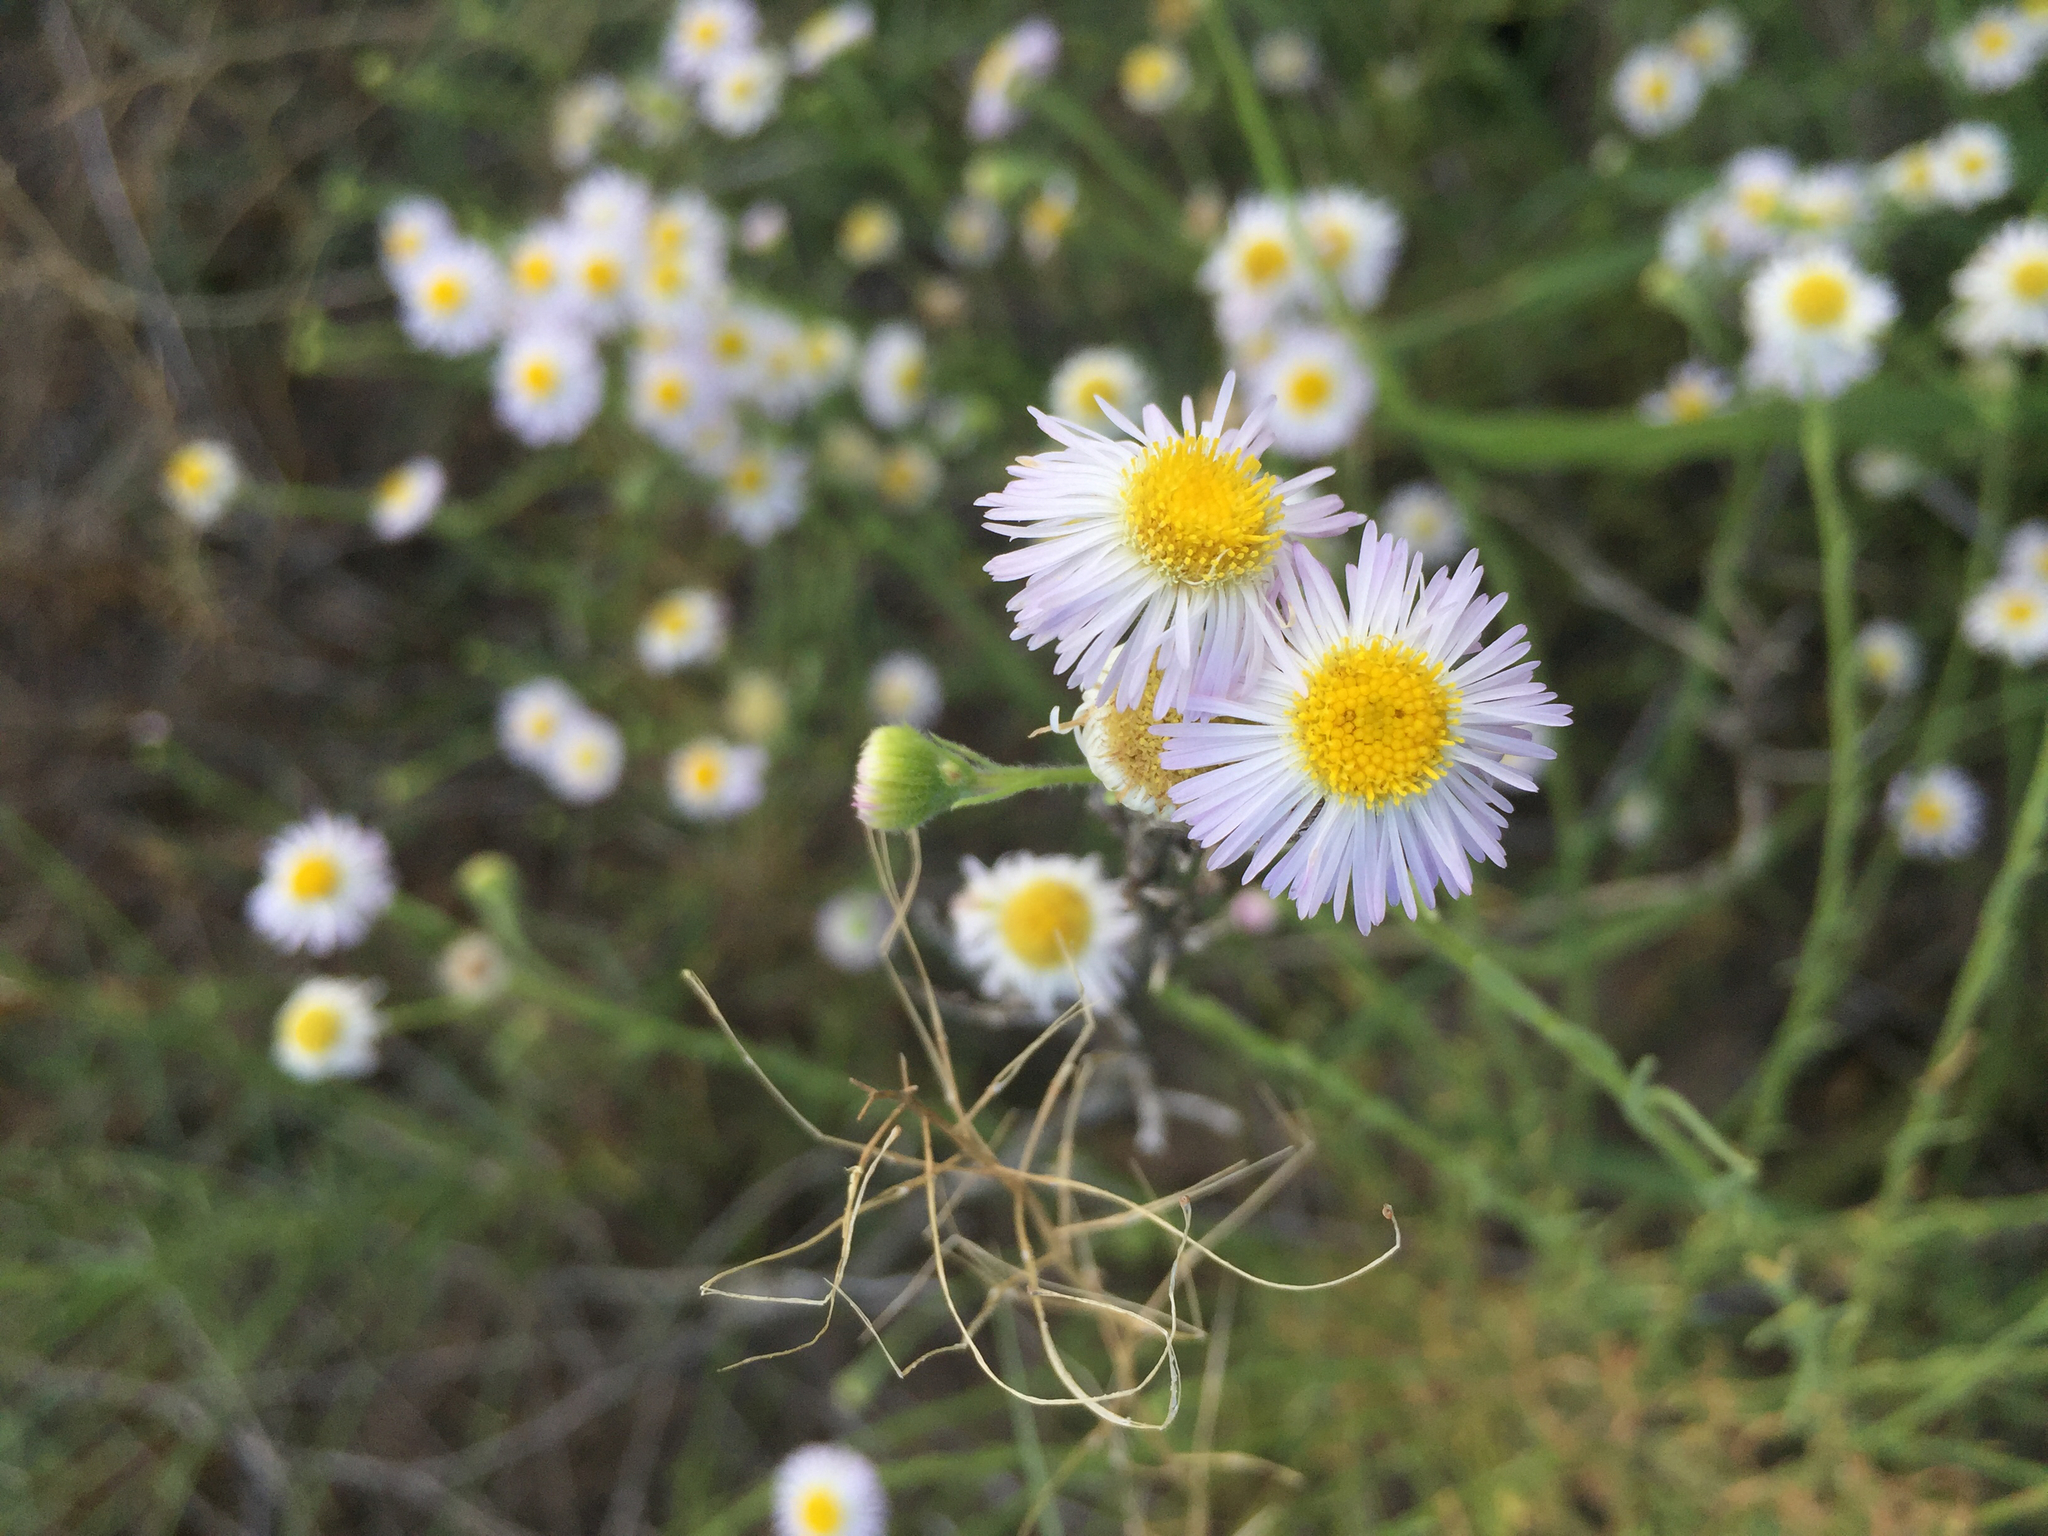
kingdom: Plantae
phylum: Tracheophyta
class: Magnoliopsida
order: Asterales
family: Asteraceae
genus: Erigeron
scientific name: Erigeron arisolius
